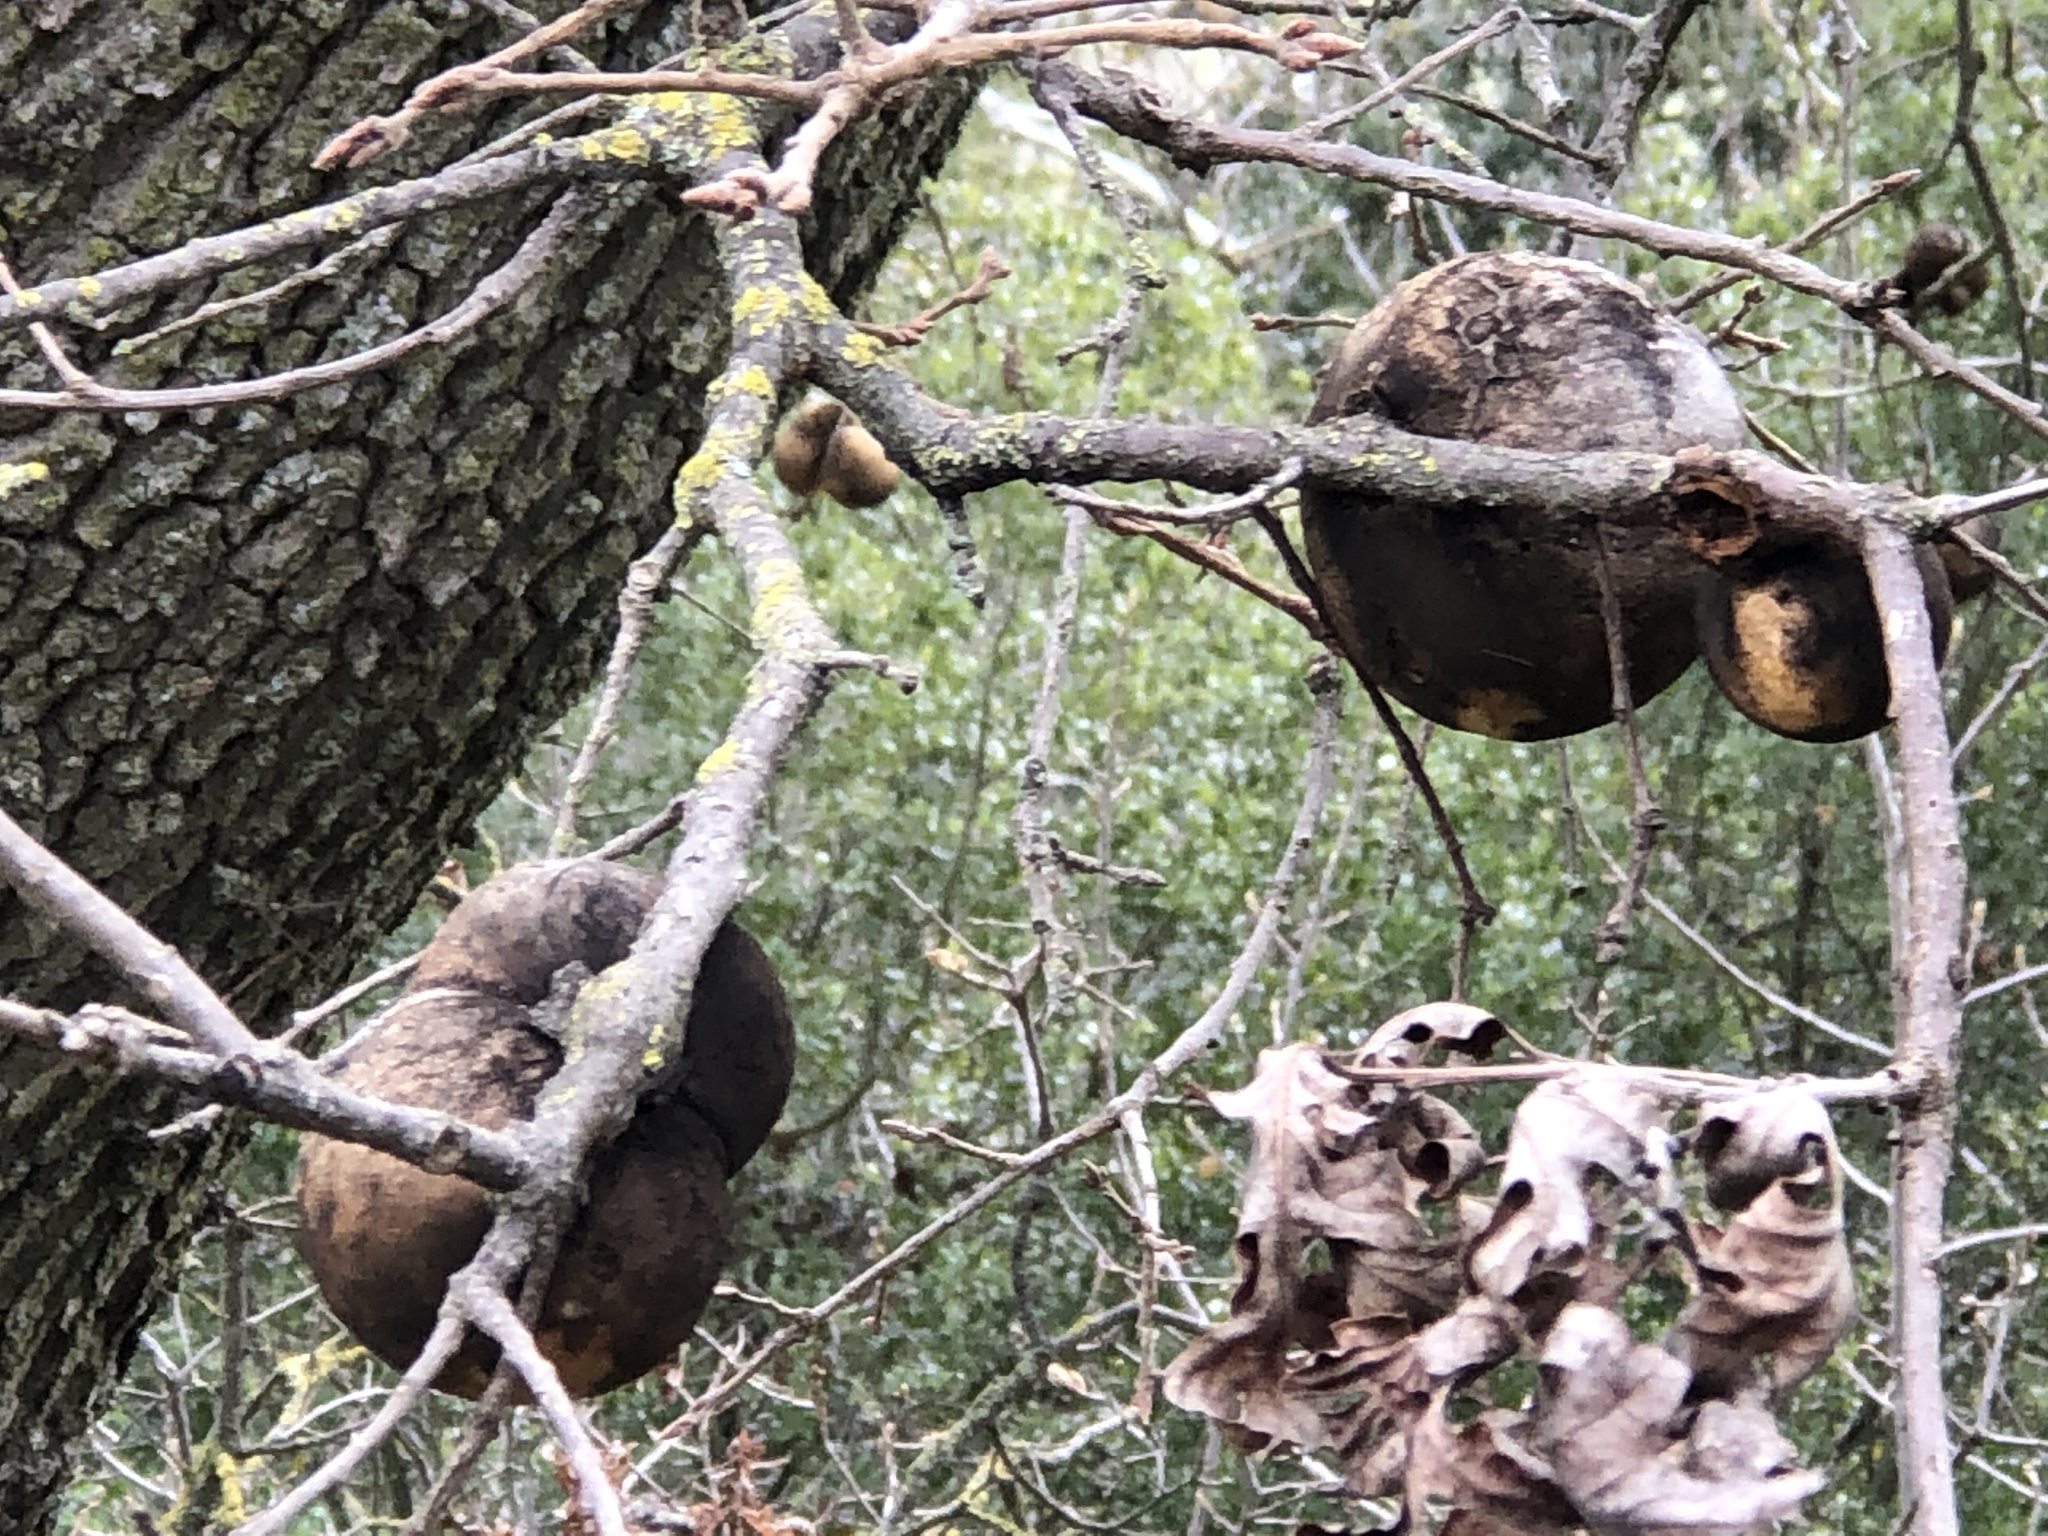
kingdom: Animalia
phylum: Arthropoda
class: Insecta
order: Hymenoptera
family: Cynipidae
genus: Andricus
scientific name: Andricus quercuscalifornicus
